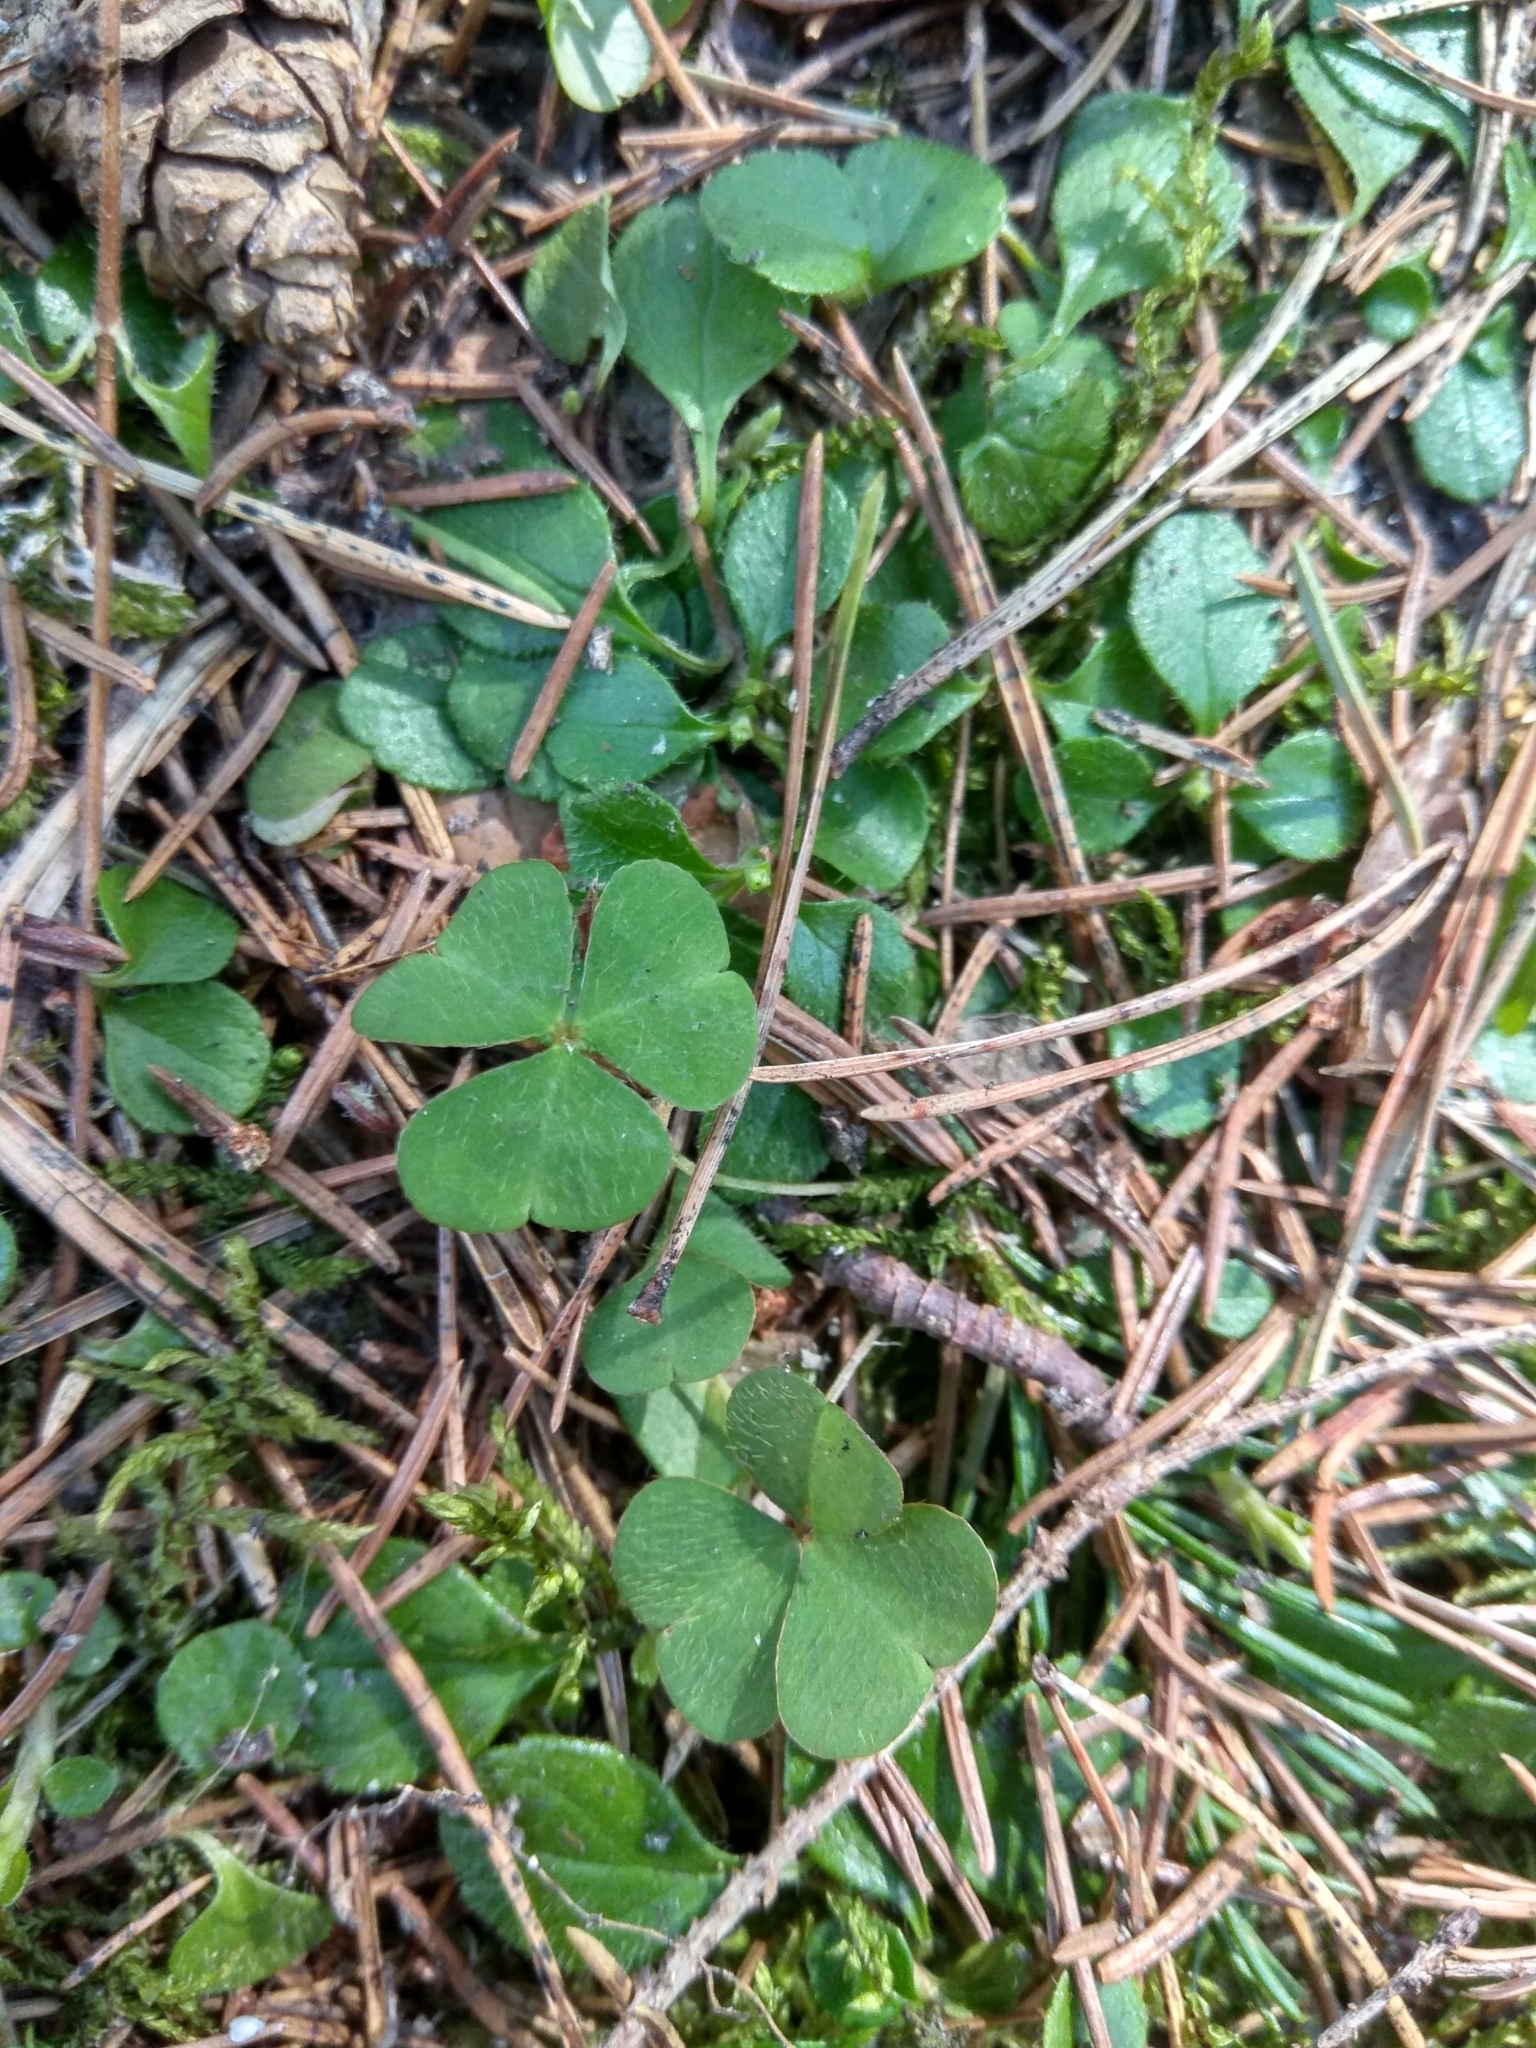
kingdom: Plantae
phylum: Tracheophyta
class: Magnoliopsida
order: Oxalidales
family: Oxalidaceae
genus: Oxalis
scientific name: Oxalis acetosella
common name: Wood-sorrel
